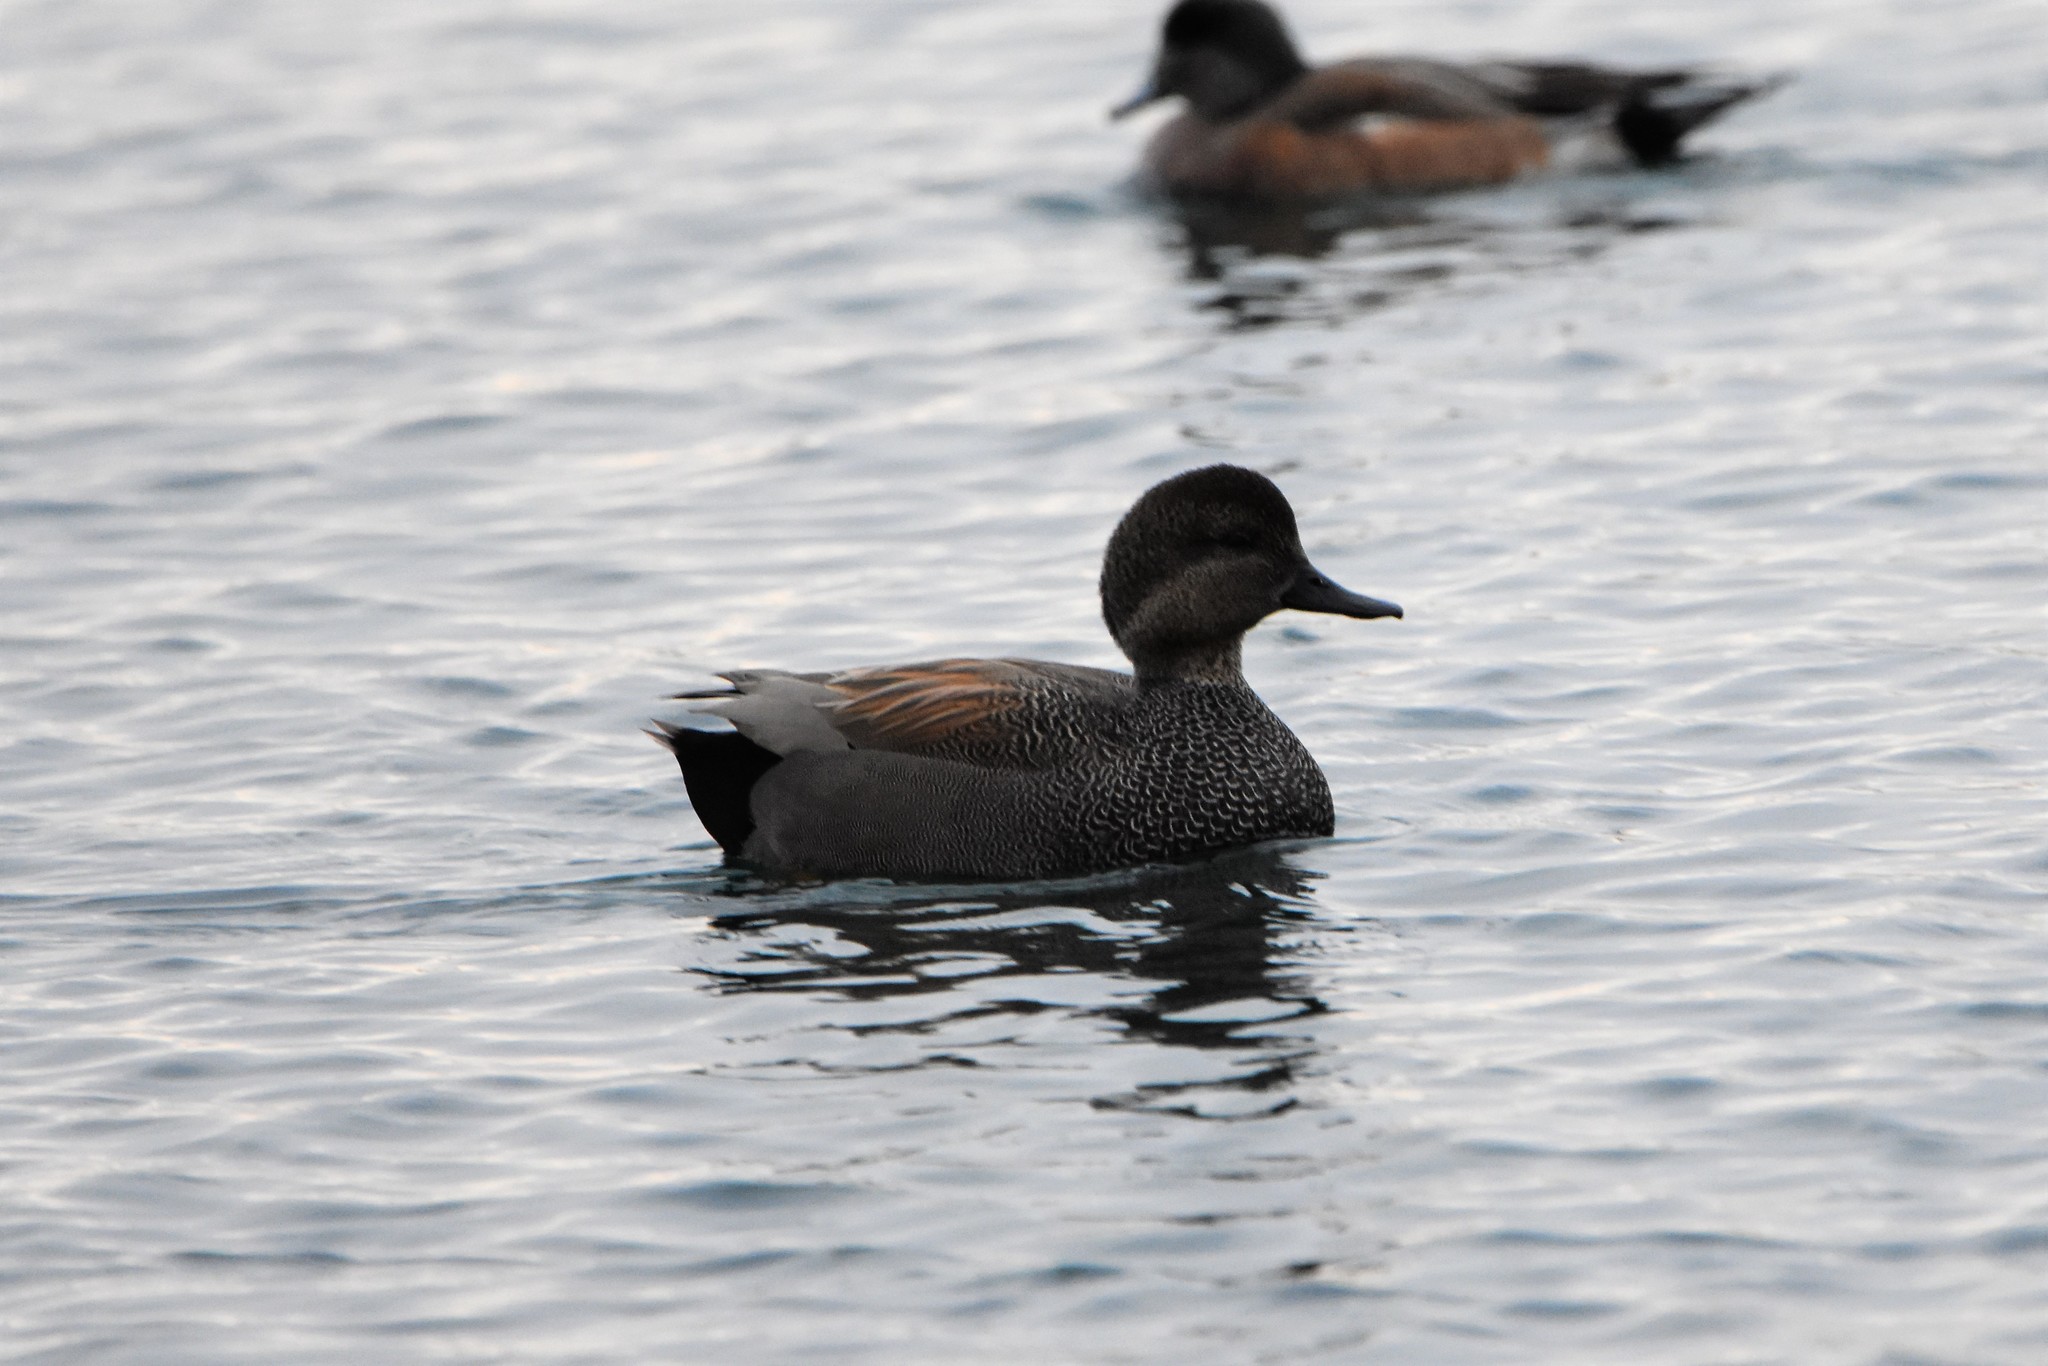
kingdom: Animalia
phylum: Chordata
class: Aves
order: Anseriformes
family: Anatidae
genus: Mareca
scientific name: Mareca strepera
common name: Gadwall
